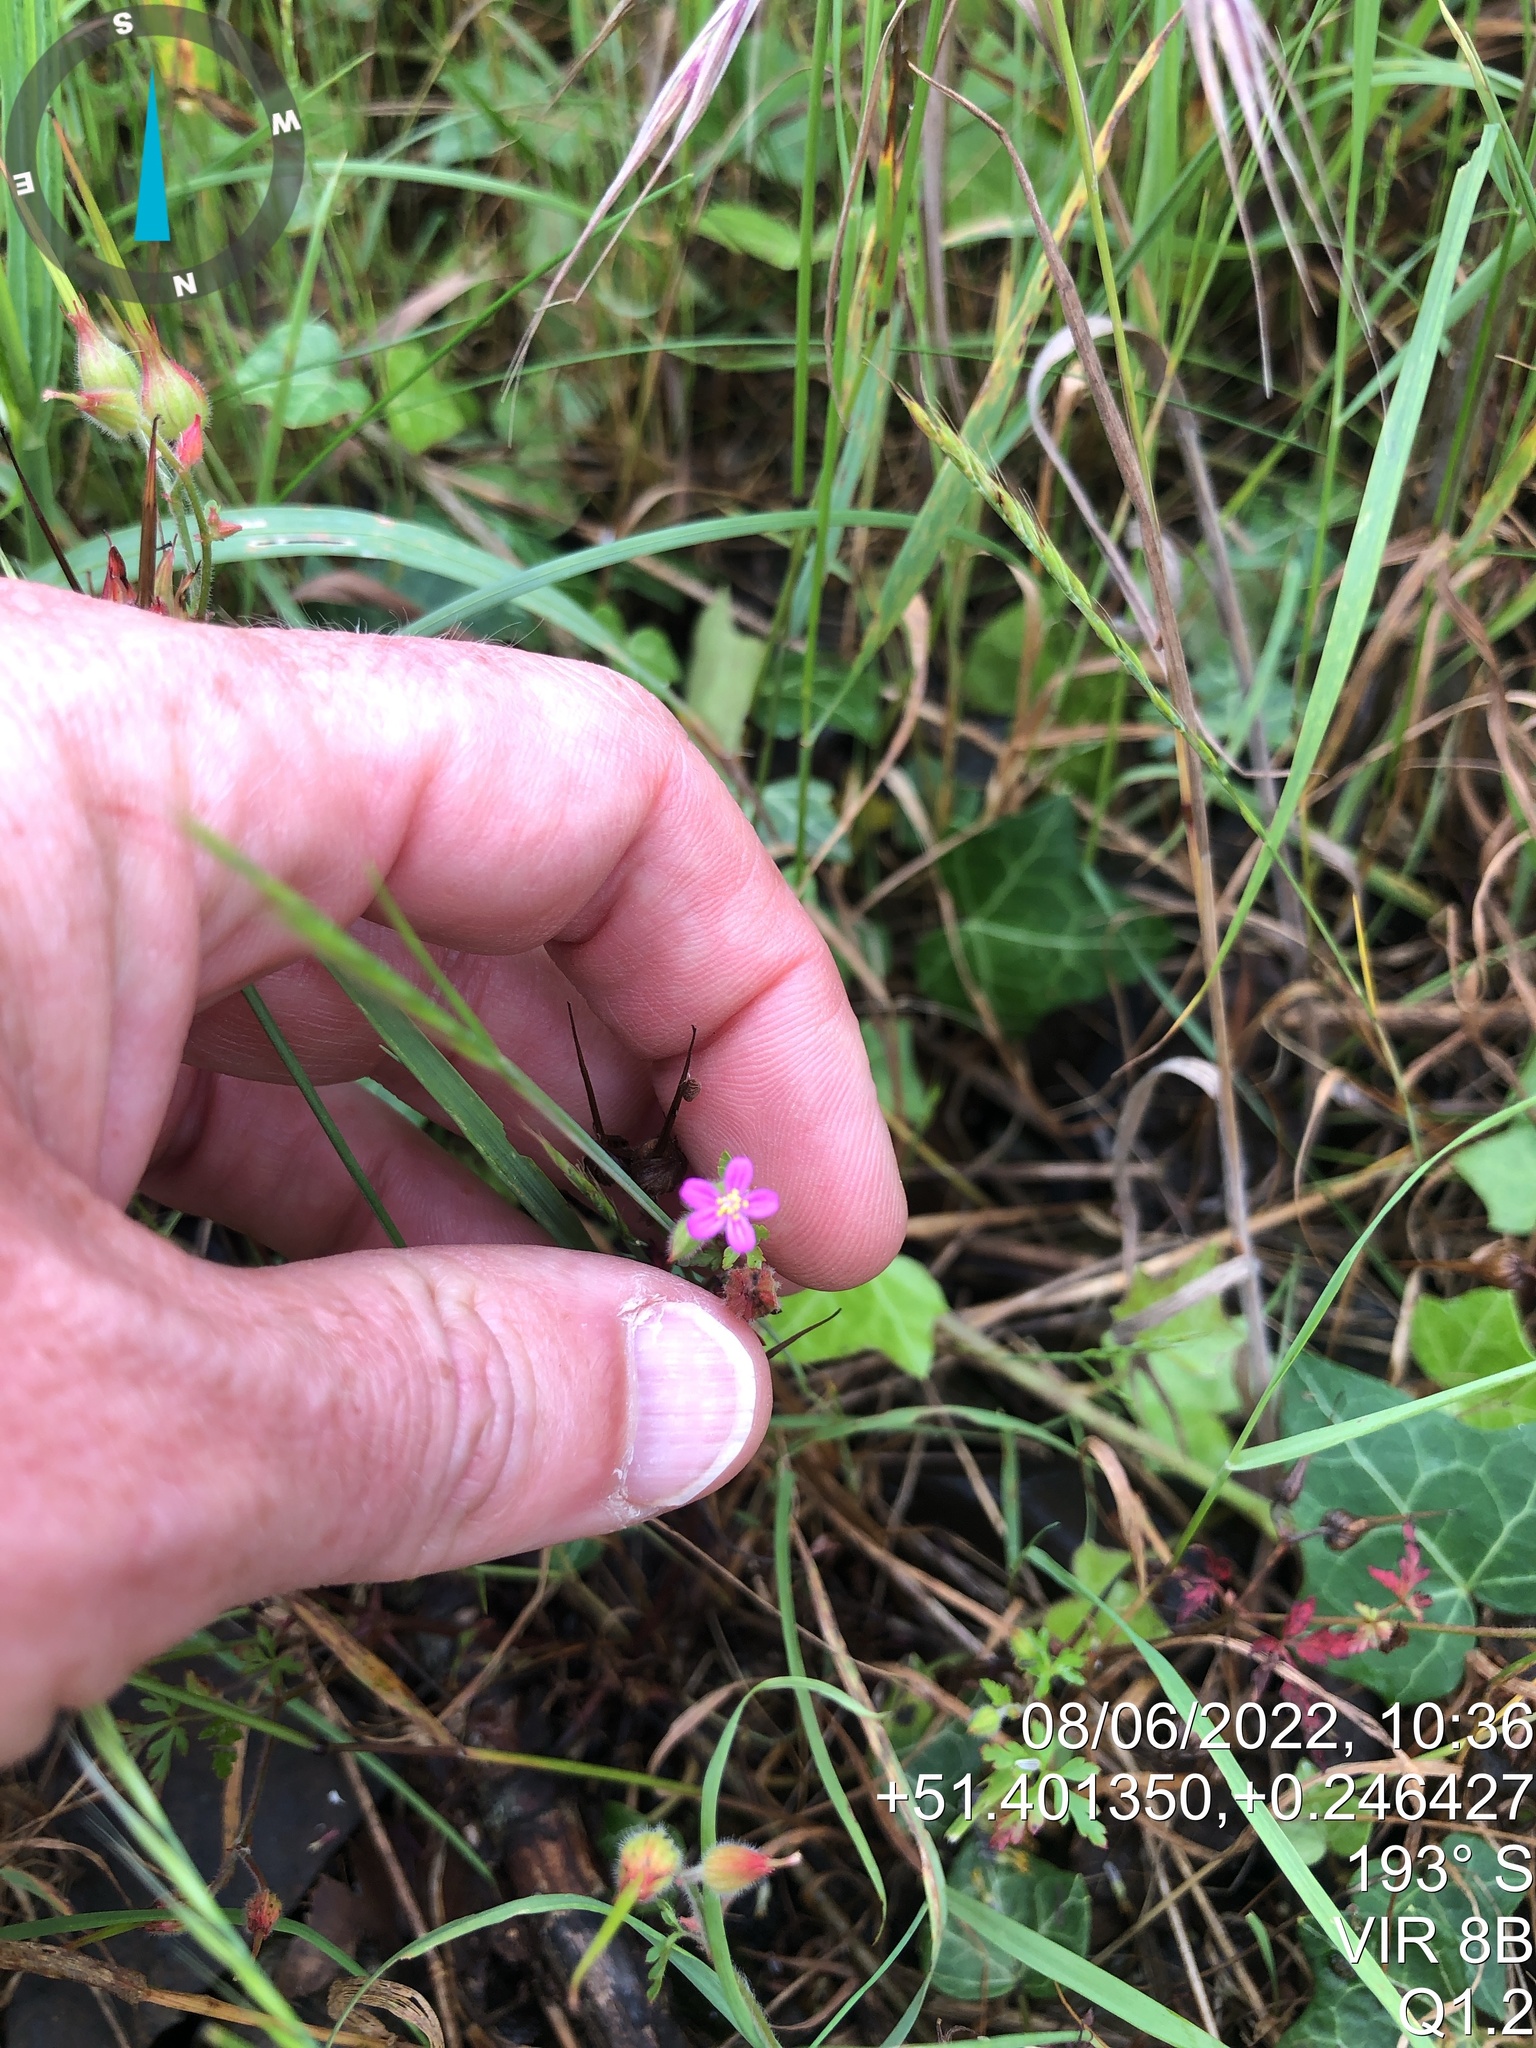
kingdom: Plantae
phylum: Tracheophyta
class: Magnoliopsida
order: Geraniales
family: Geraniaceae
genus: Geranium
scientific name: Geranium purpureum
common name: Little-robin
